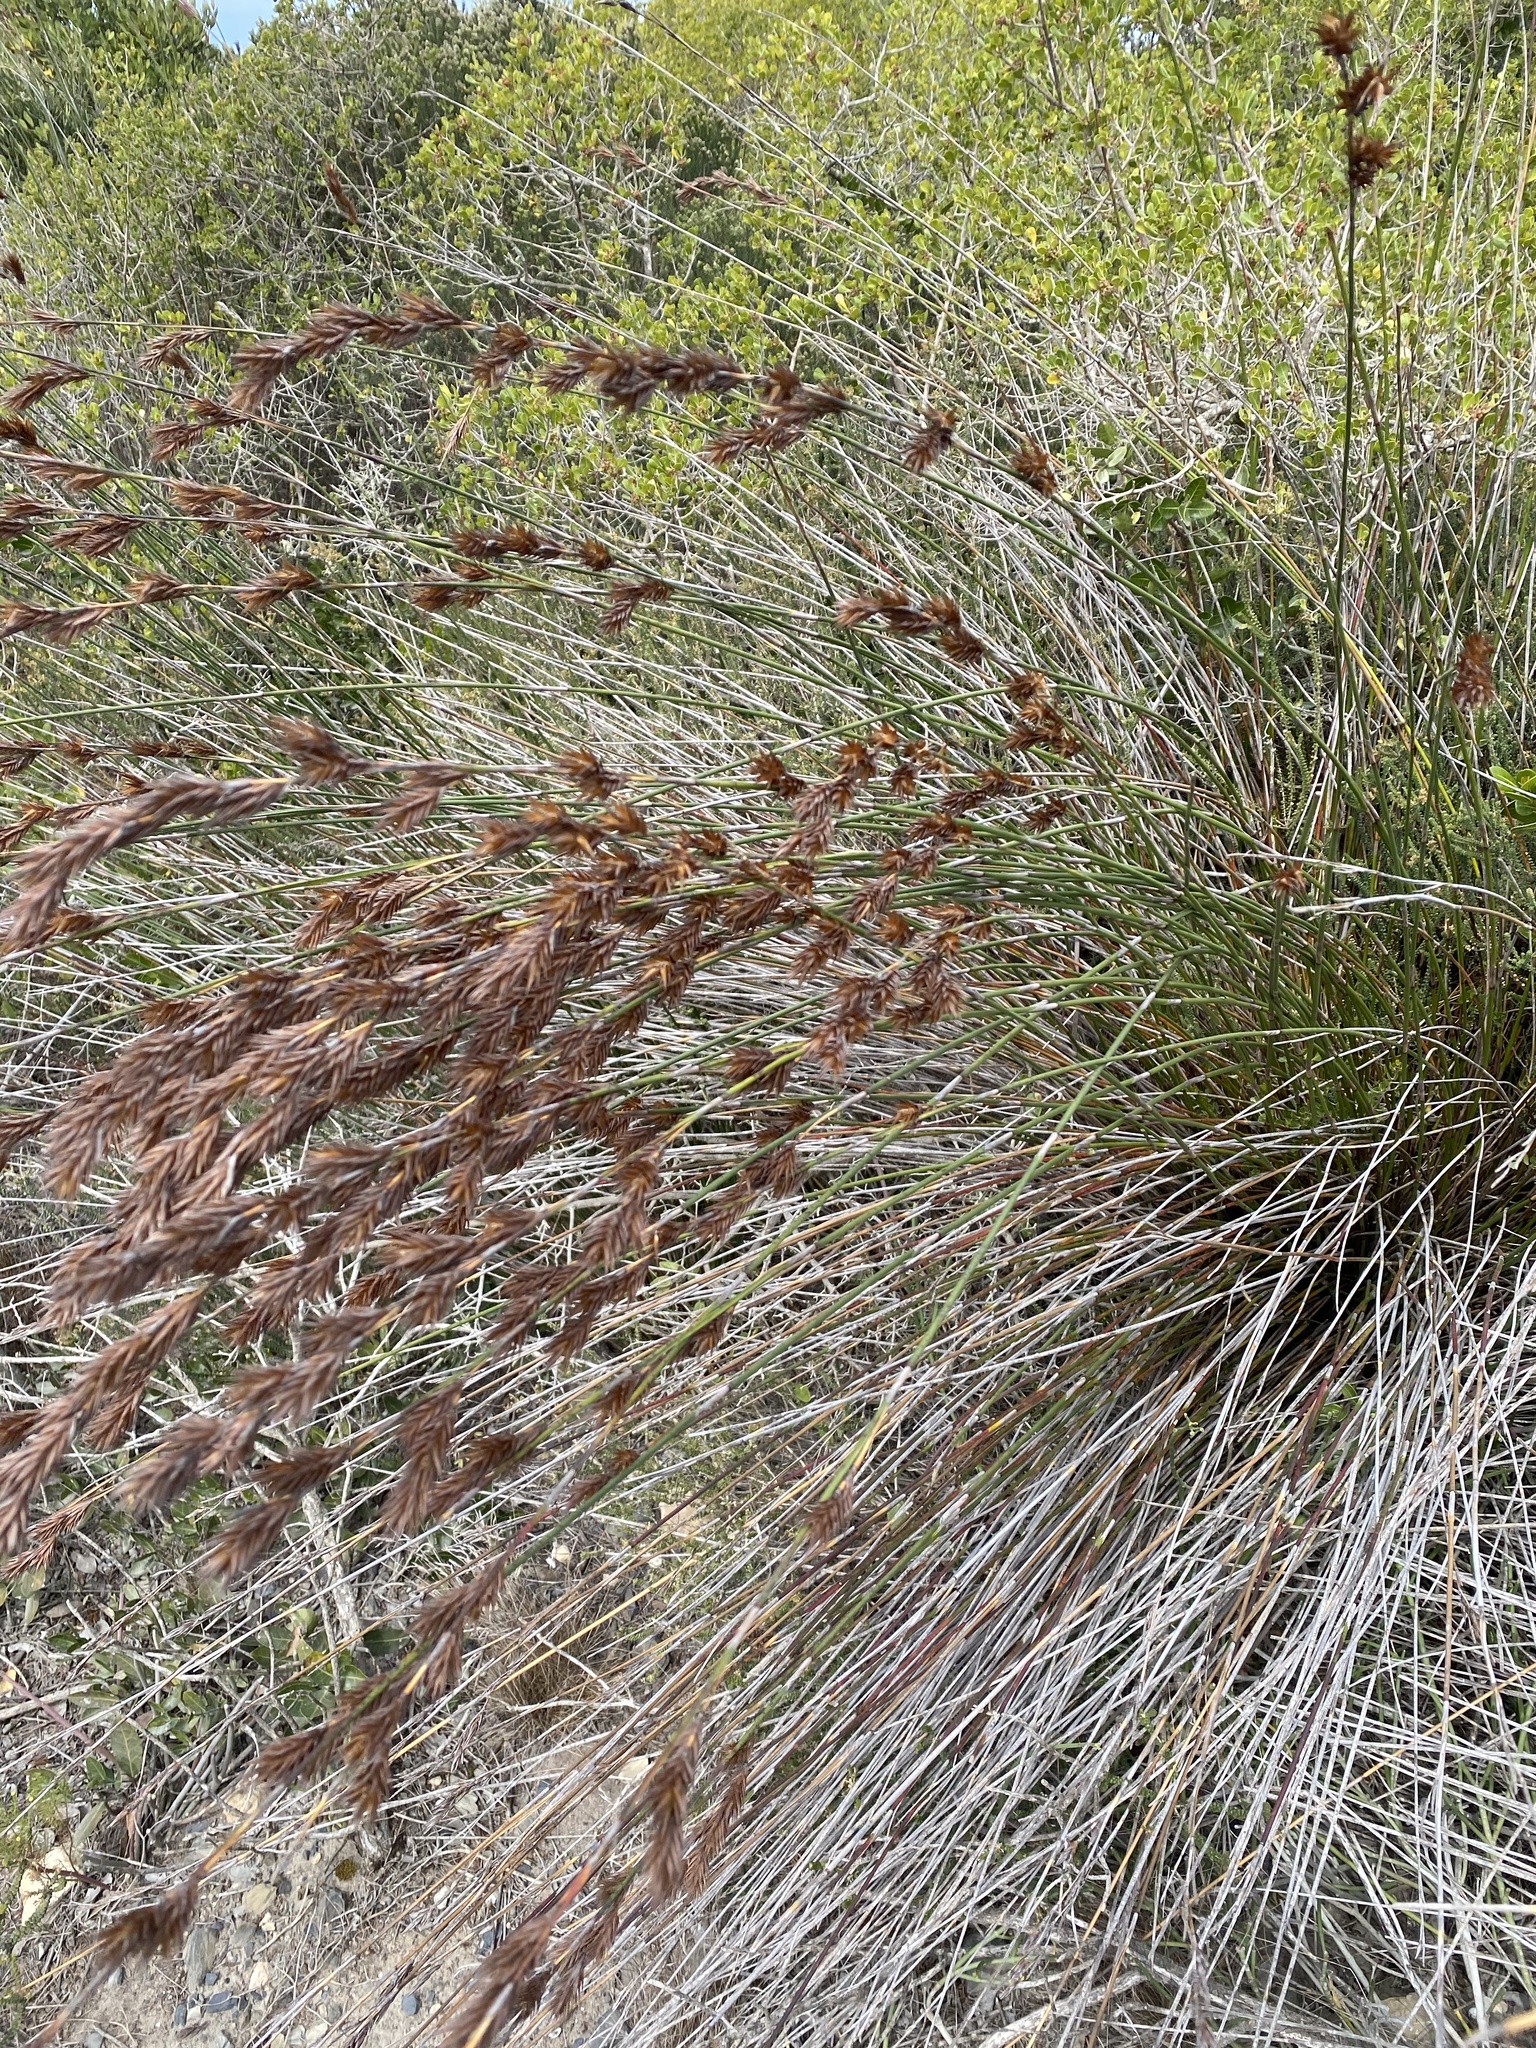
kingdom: Plantae
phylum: Tracheophyta
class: Liliopsida
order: Poales
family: Restionaceae
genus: Thamnochortus
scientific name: Thamnochortus insignis
